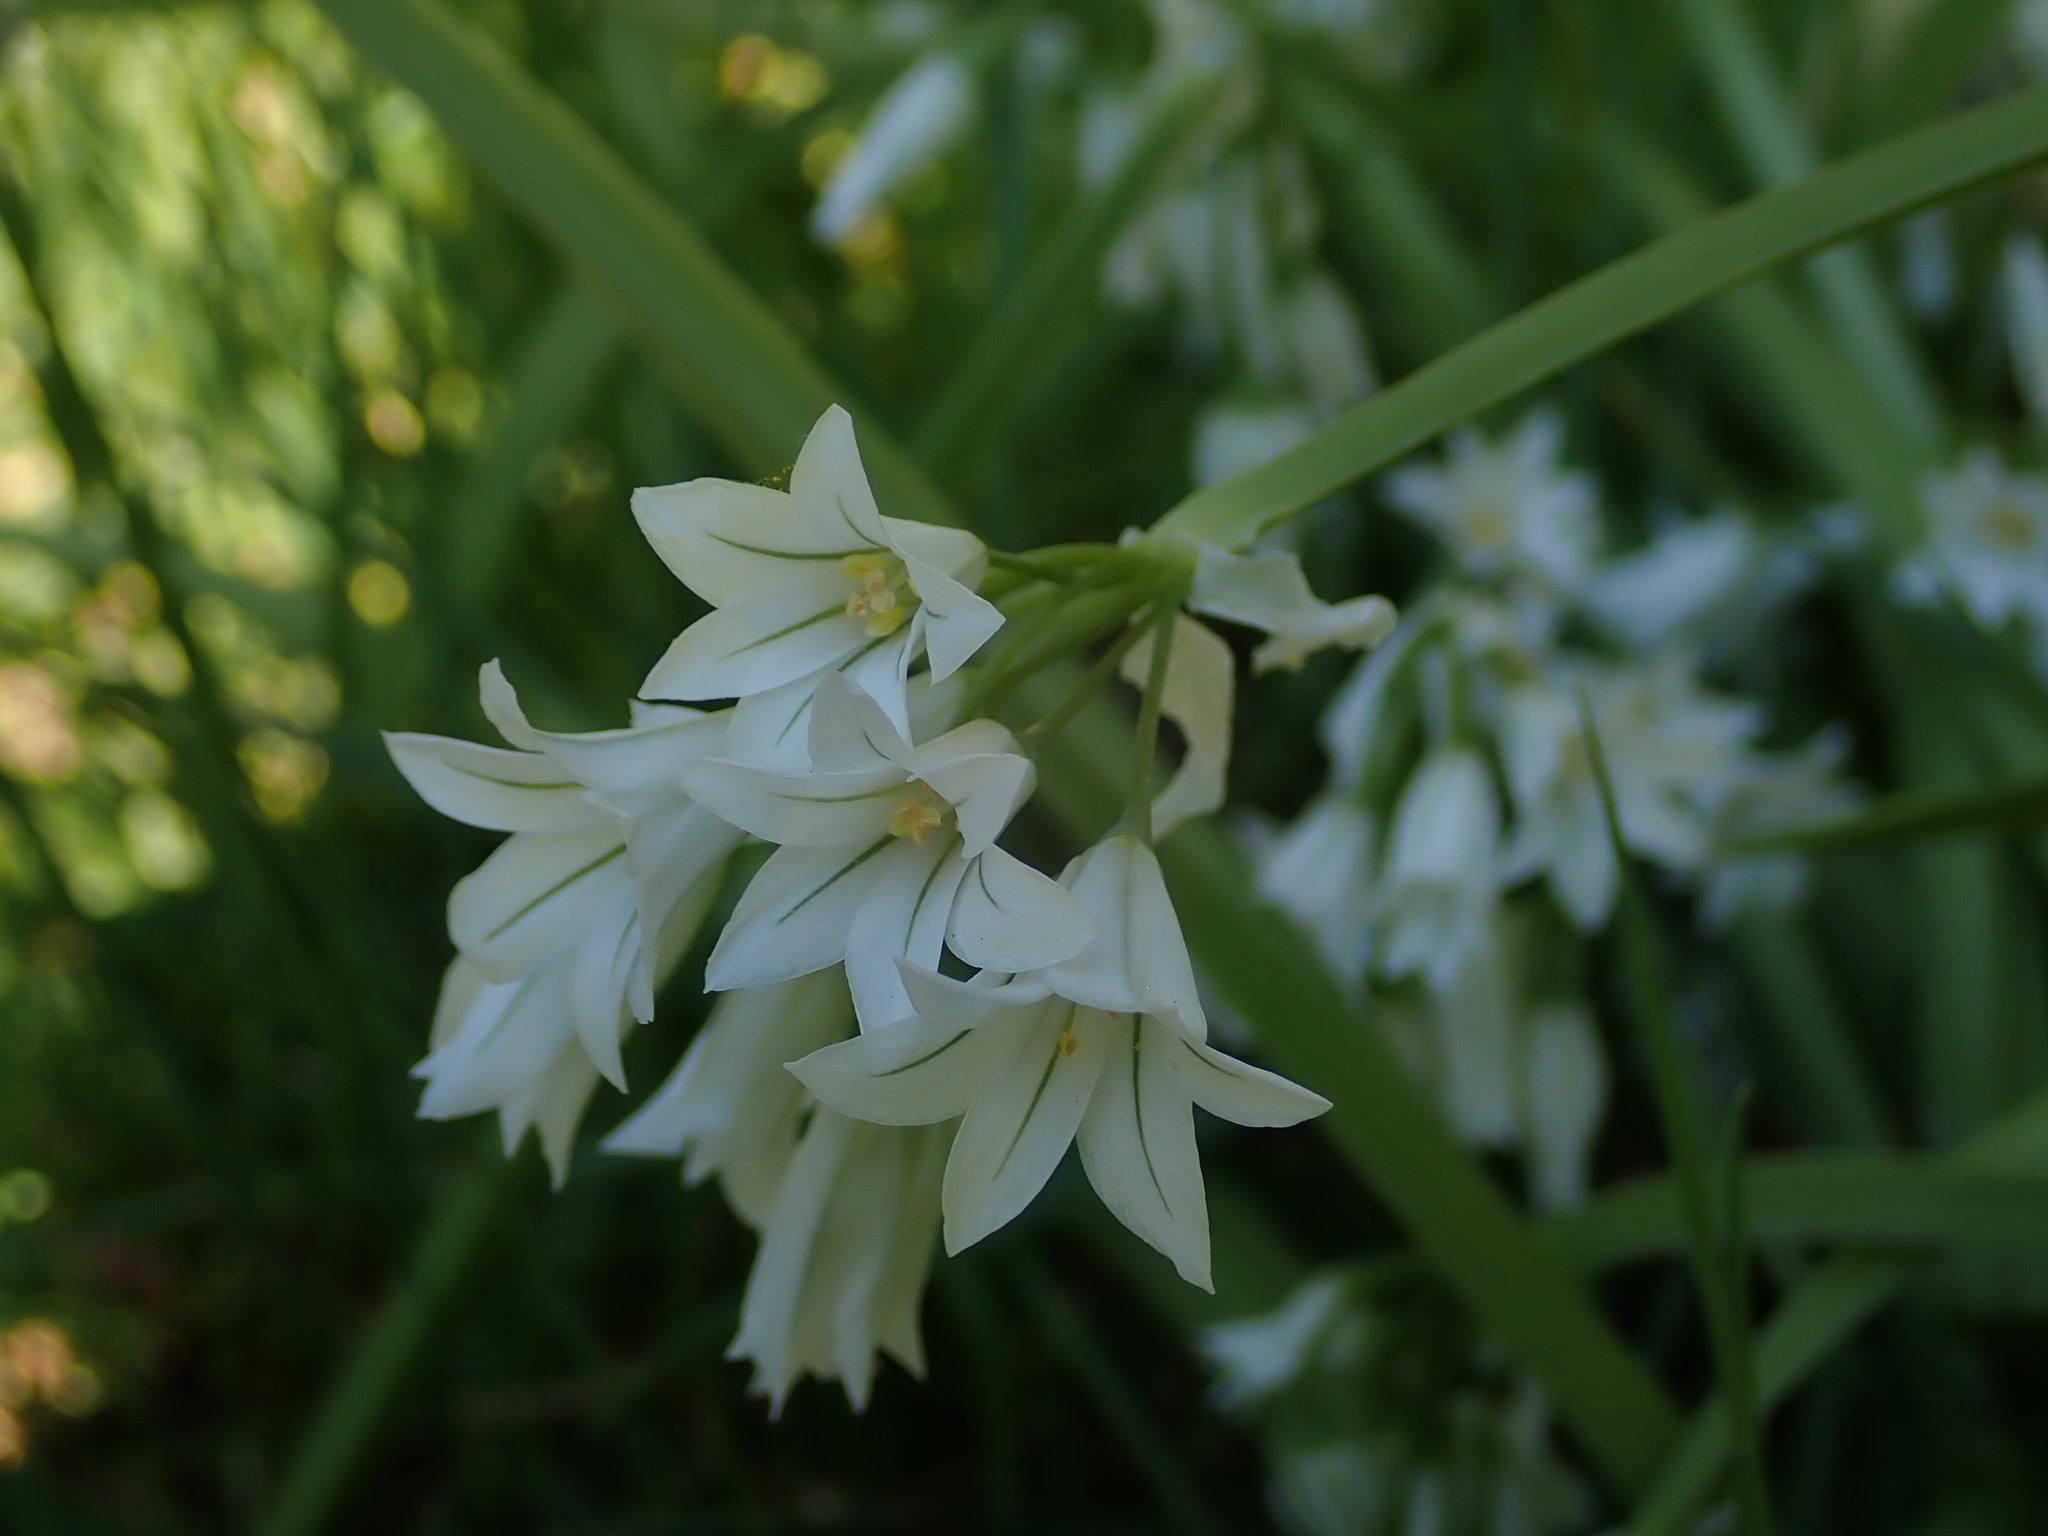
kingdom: Plantae
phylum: Tracheophyta
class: Liliopsida
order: Asparagales
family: Amaryllidaceae
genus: Allium
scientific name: Allium triquetrum
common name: Three-cornered garlic
